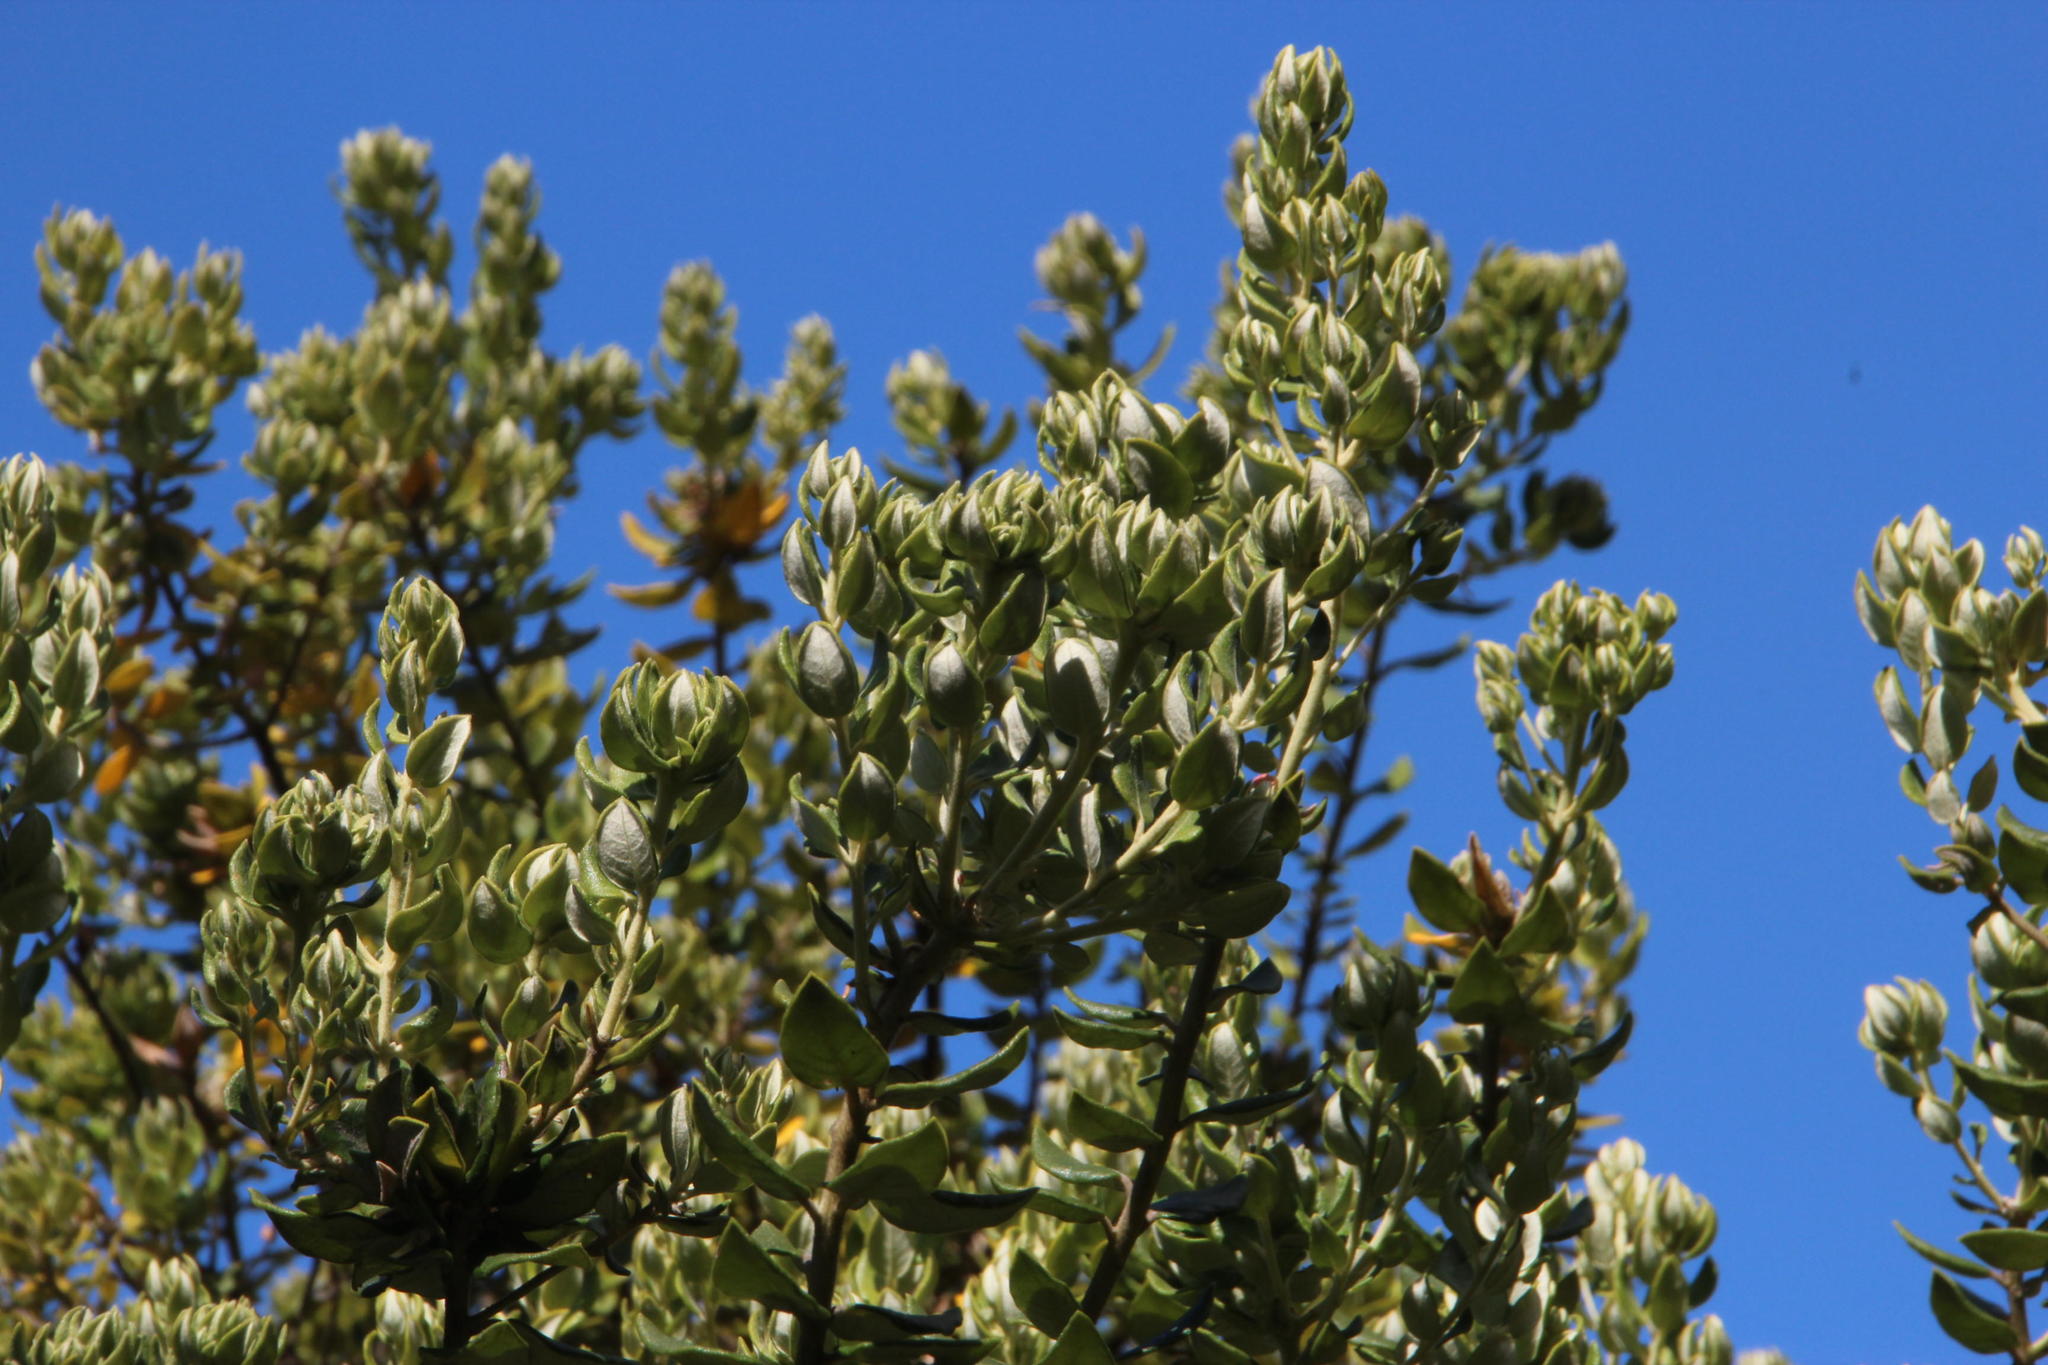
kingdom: Plantae
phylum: Tracheophyta
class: Magnoliopsida
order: Rosales
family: Rhamnaceae
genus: Phylica
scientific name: Phylica buxifolia
